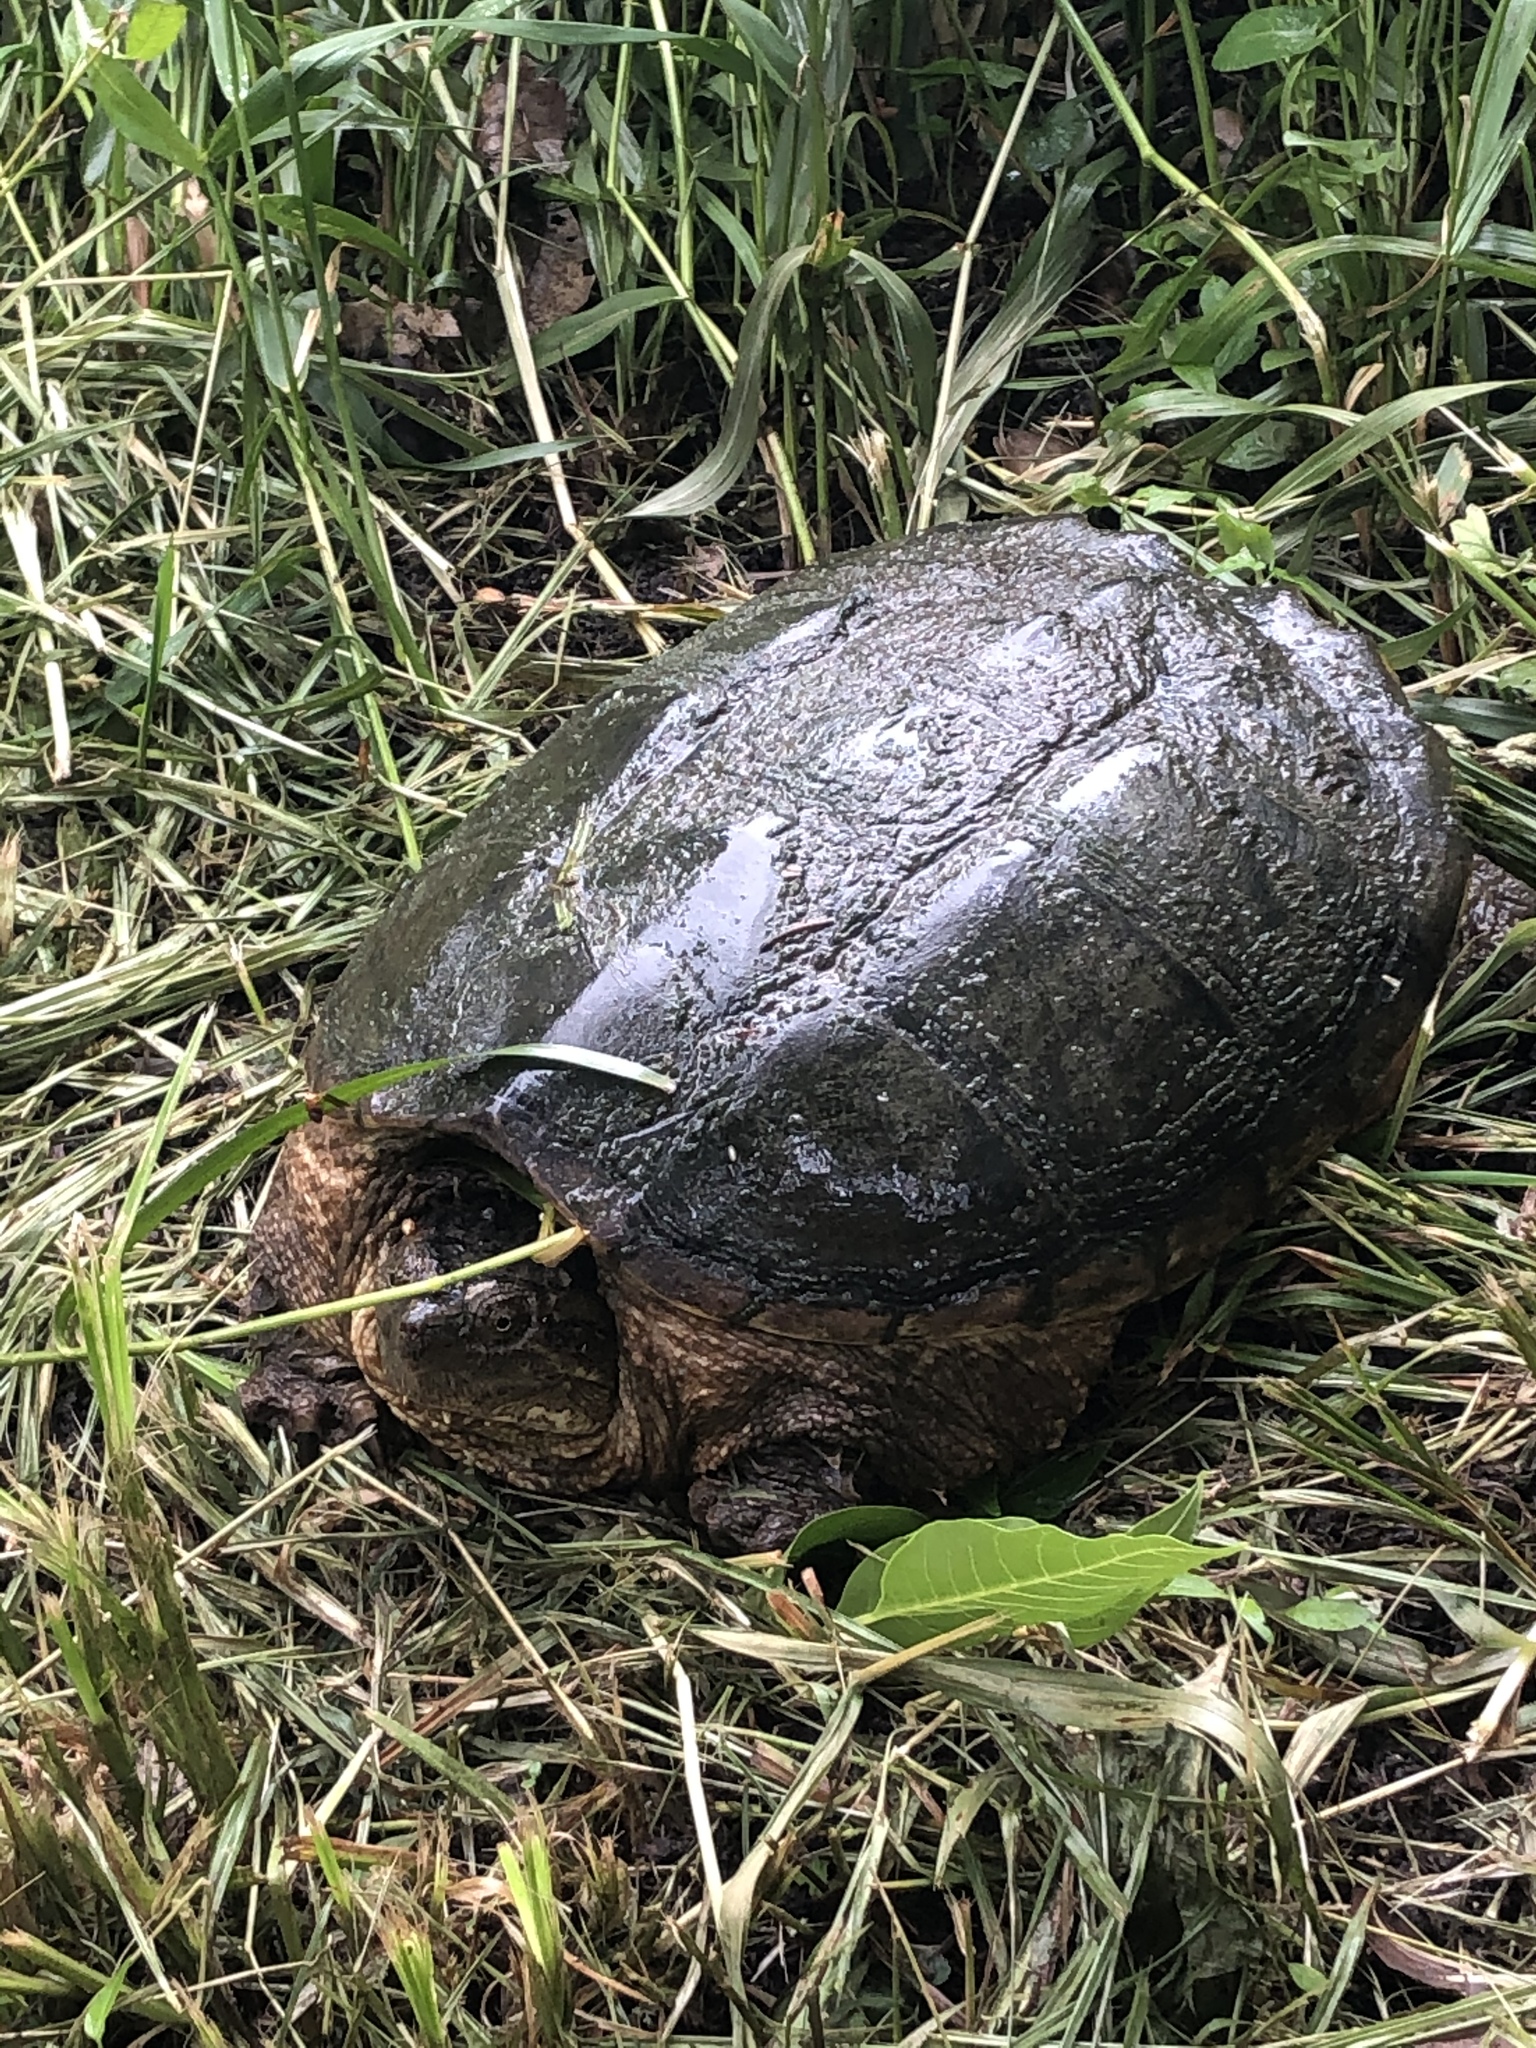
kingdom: Animalia
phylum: Chordata
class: Testudines
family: Chelydridae
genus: Chelydra
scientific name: Chelydra serpentina
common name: Common snapping turtle
